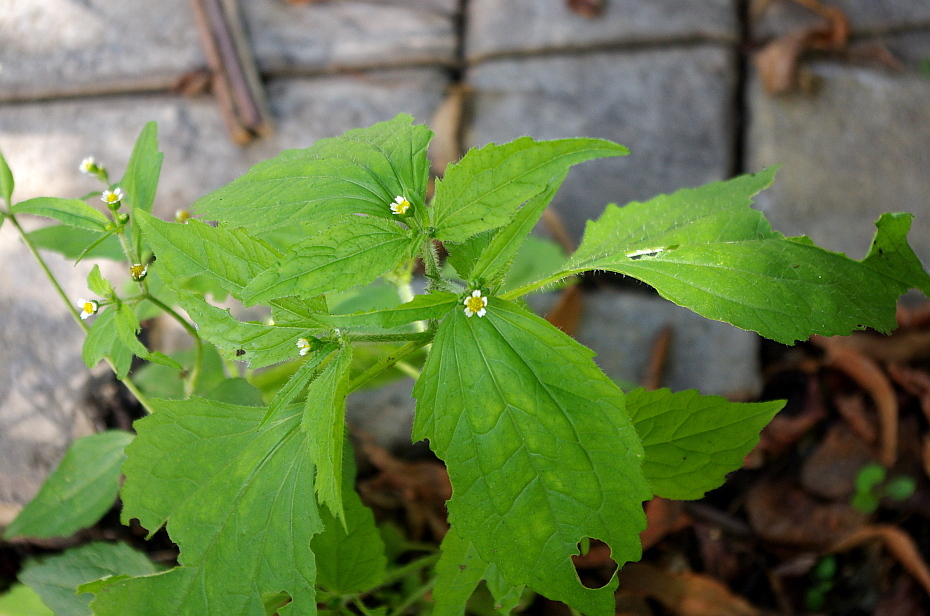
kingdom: Plantae
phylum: Tracheophyta
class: Magnoliopsida
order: Asterales
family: Asteraceae
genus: Galinsoga
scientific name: Galinsoga quadriradiata
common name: Shaggy soldier
